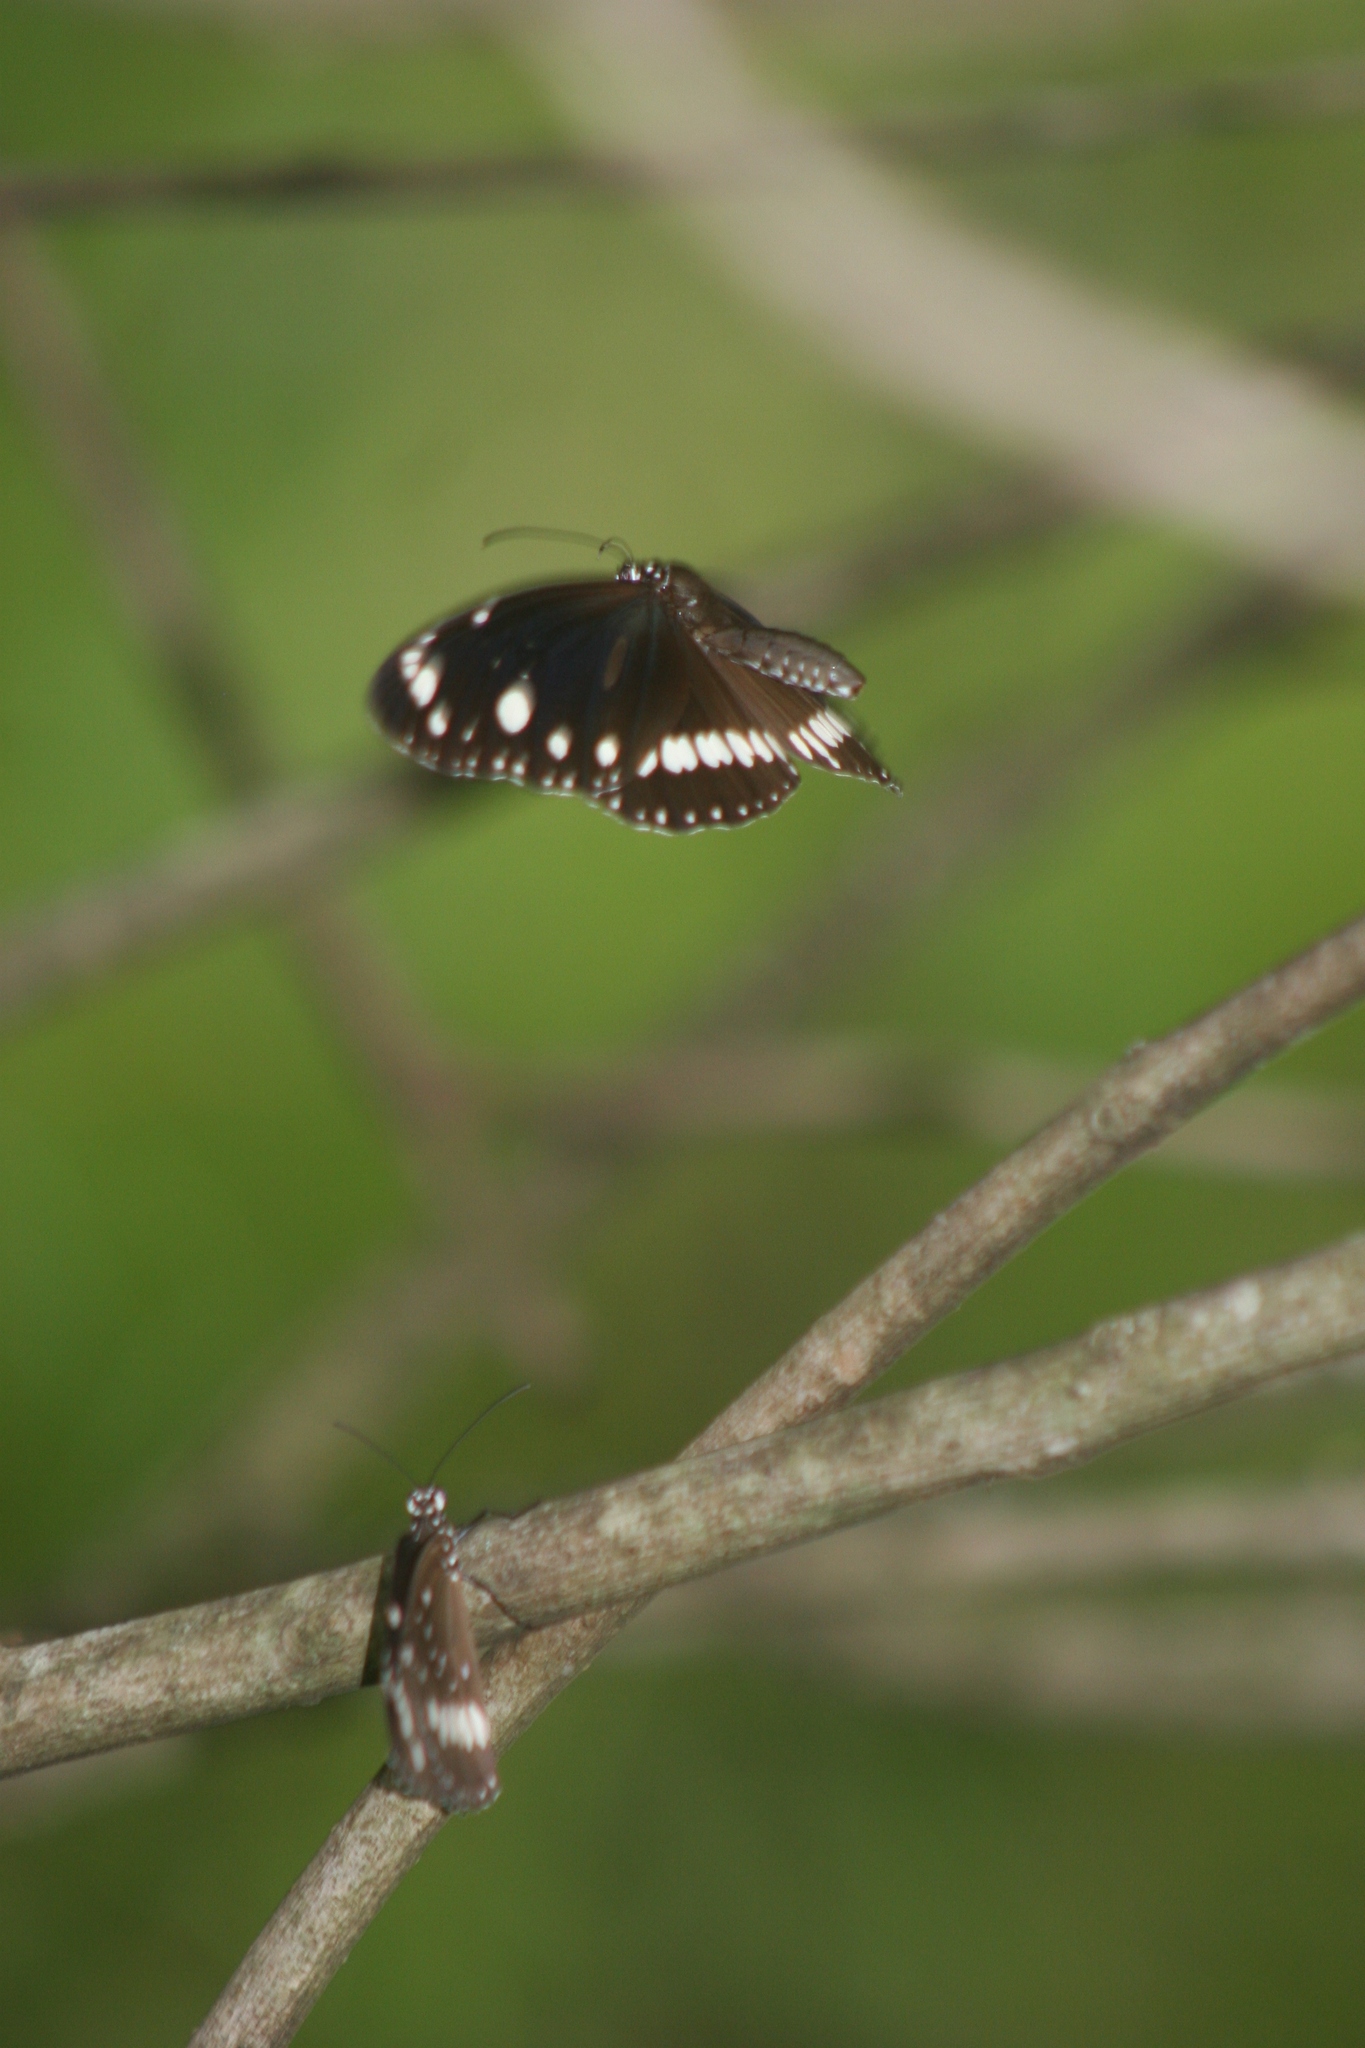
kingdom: Animalia
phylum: Arthropoda
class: Insecta
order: Lepidoptera
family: Nymphalidae
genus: Euploea
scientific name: Euploea core
